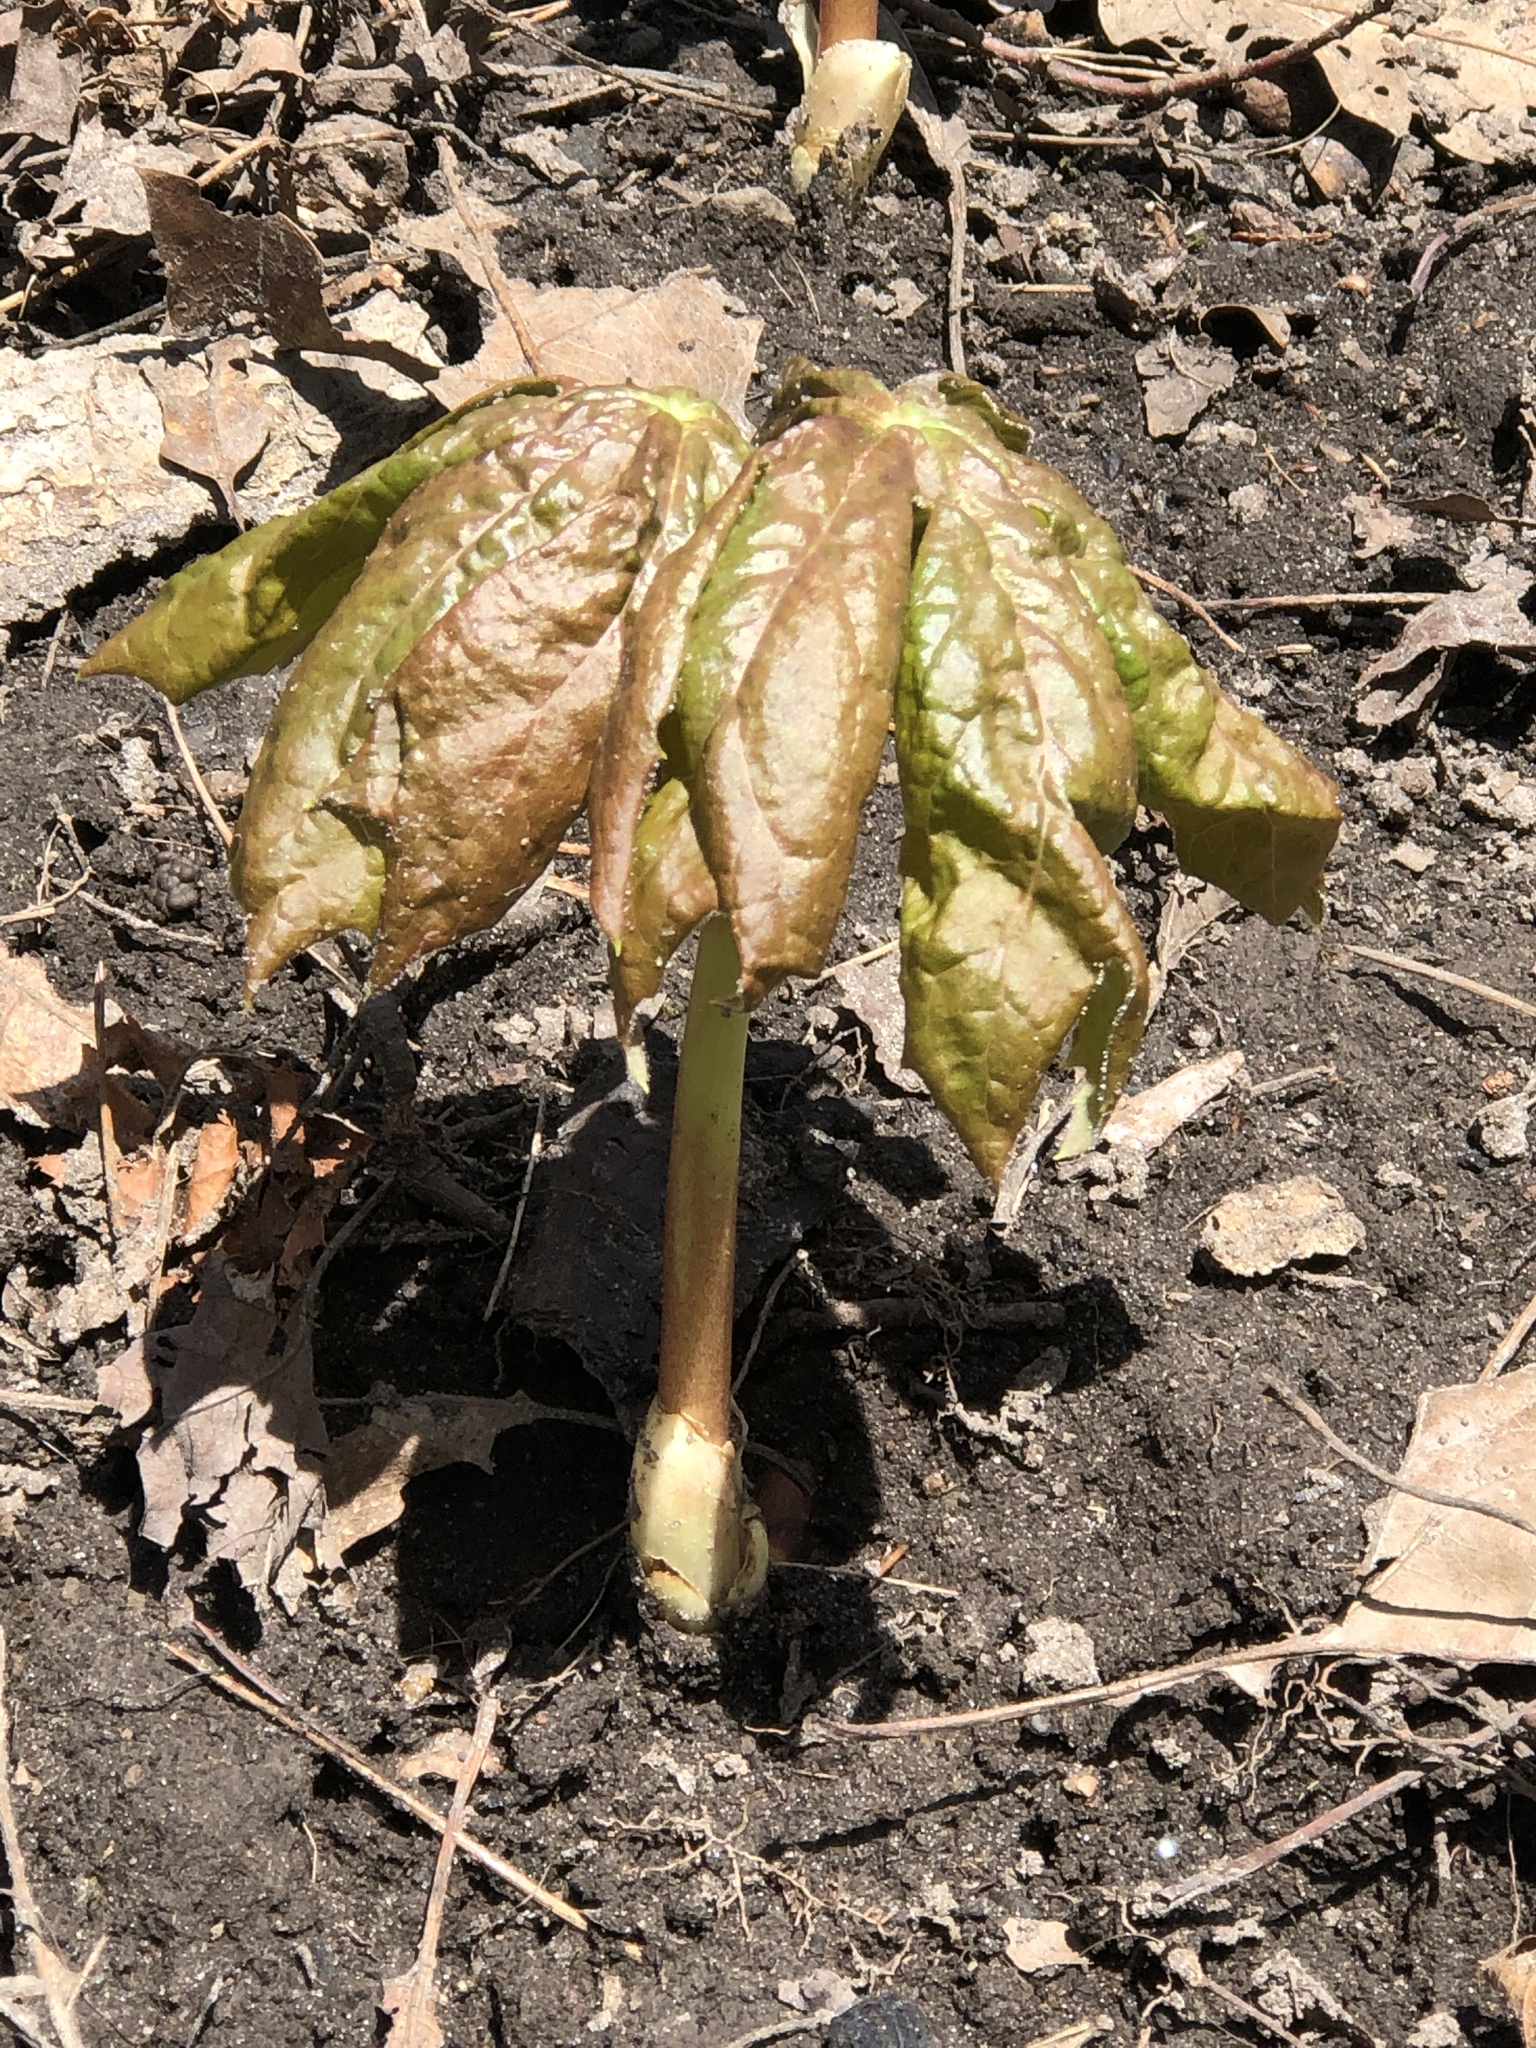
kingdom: Plantae
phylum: Tracheophyta
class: Magnoliopsida
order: Ranunculales
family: Berberidaceae
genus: Podophyllum
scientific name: Podophyllum peltatum
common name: Wild mandrake
